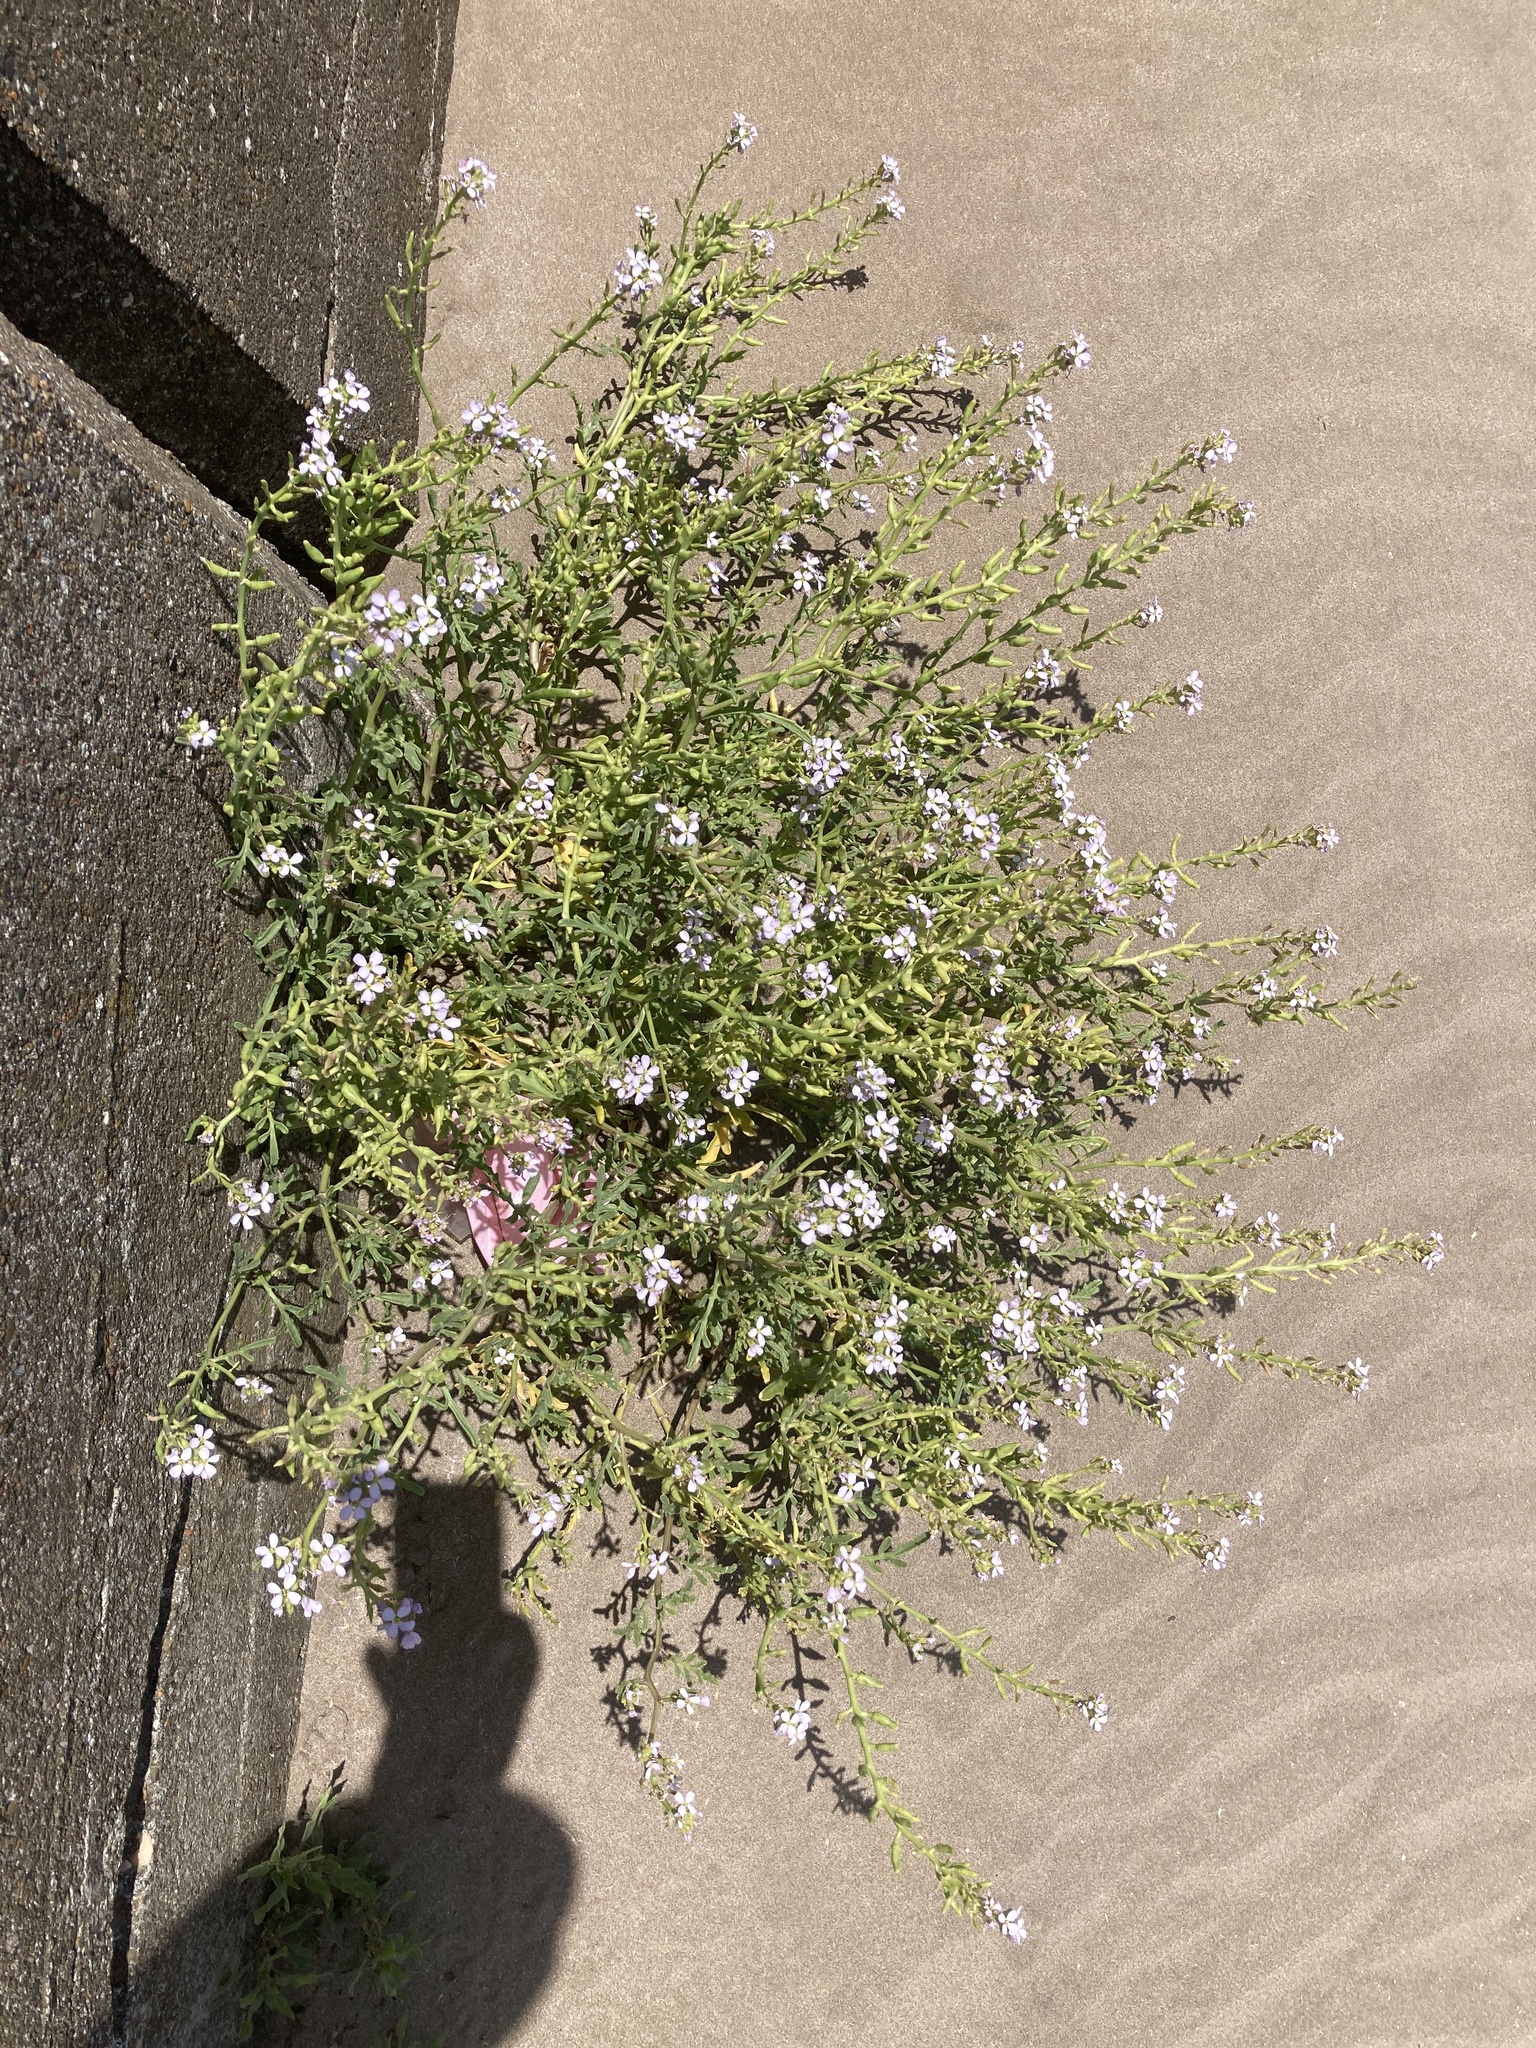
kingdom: Plantae
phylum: Tracheophyta
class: Magnoliopsida
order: Brassicales
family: Brassicaceae
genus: Cakile
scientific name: Cakile maritima
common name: Sea rocket
